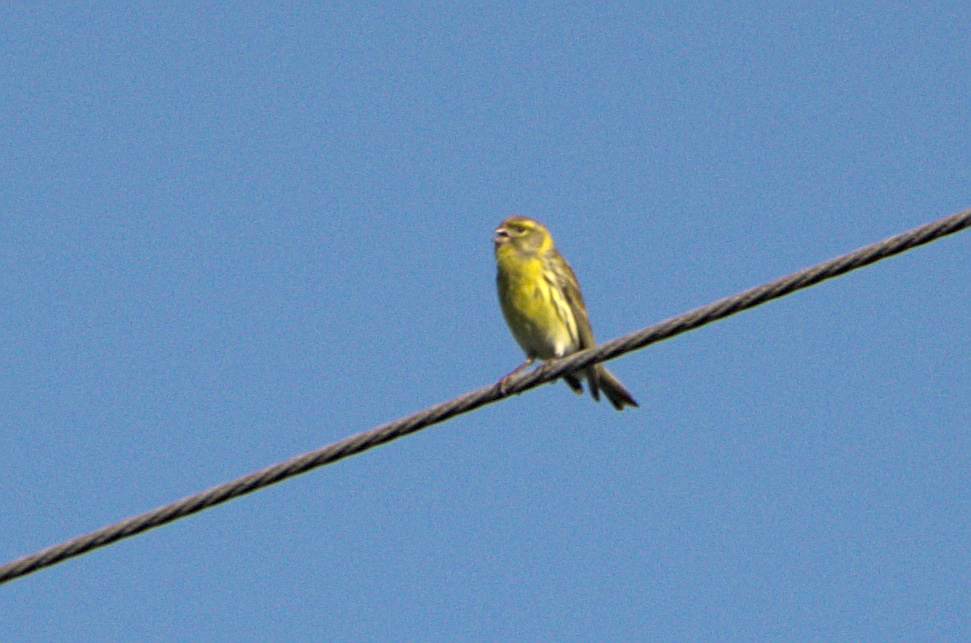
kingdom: Animalia
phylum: Chordata
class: Aves
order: Passeriformes
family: Fringillidae
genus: Serinus
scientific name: Serinus serinus
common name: European serin
